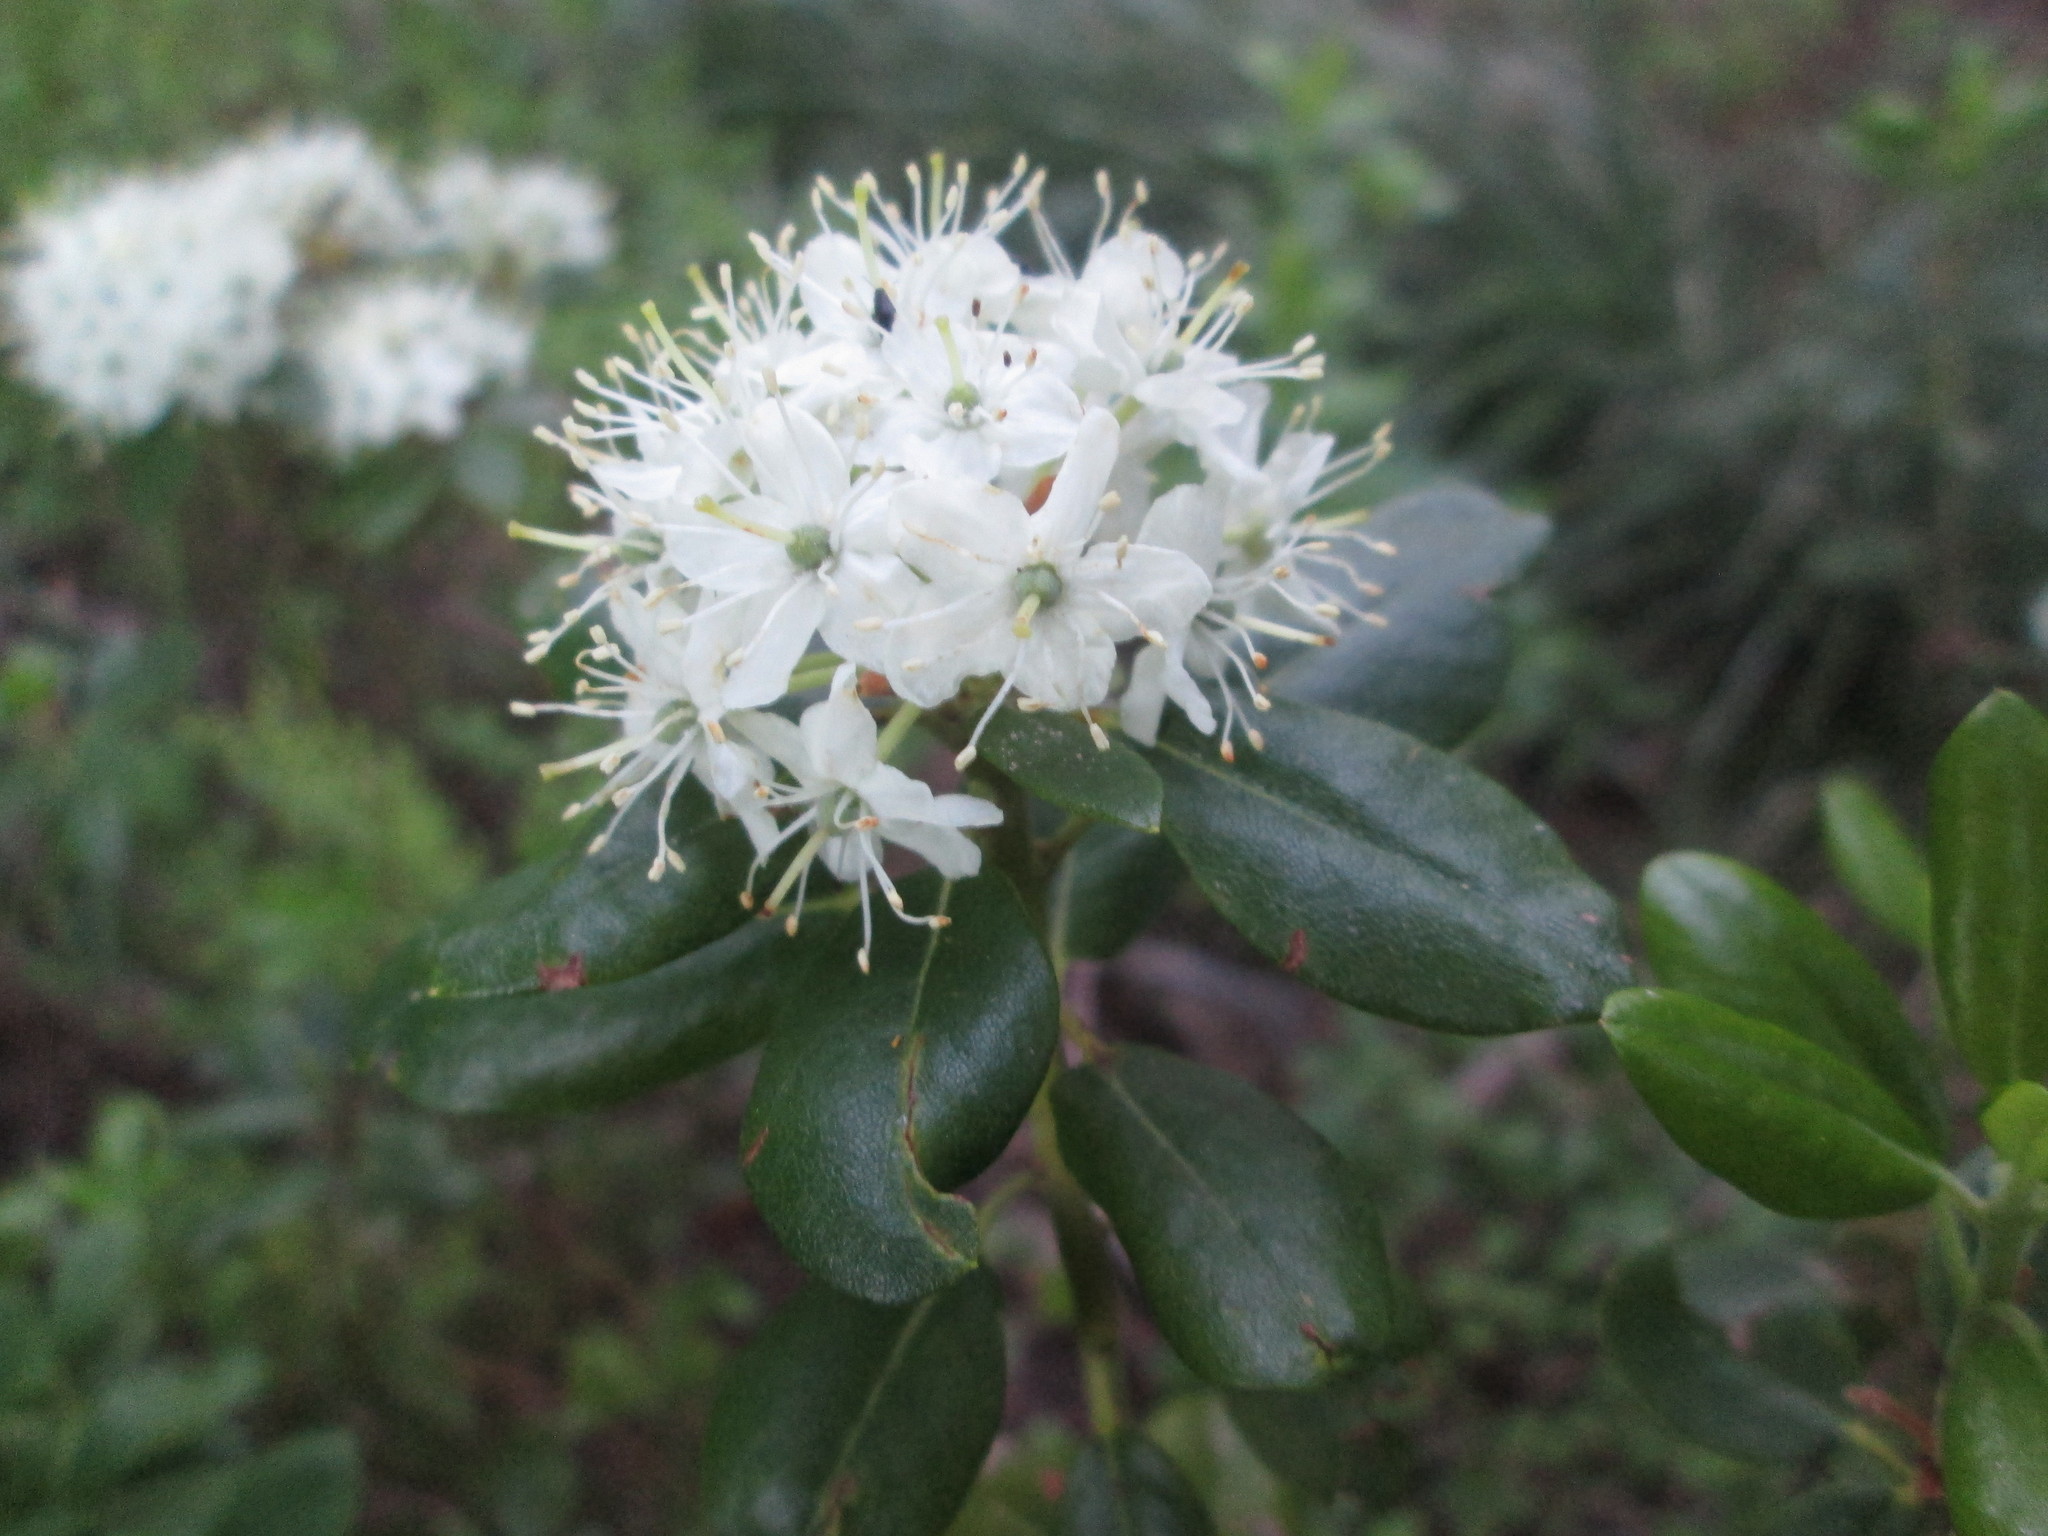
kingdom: Plantae
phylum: Tracheophyta
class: Magnoliopsida
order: Ericales
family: Ericaceae
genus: Rhododendron
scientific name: Rhododendron columbianum
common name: Western labrador tea
